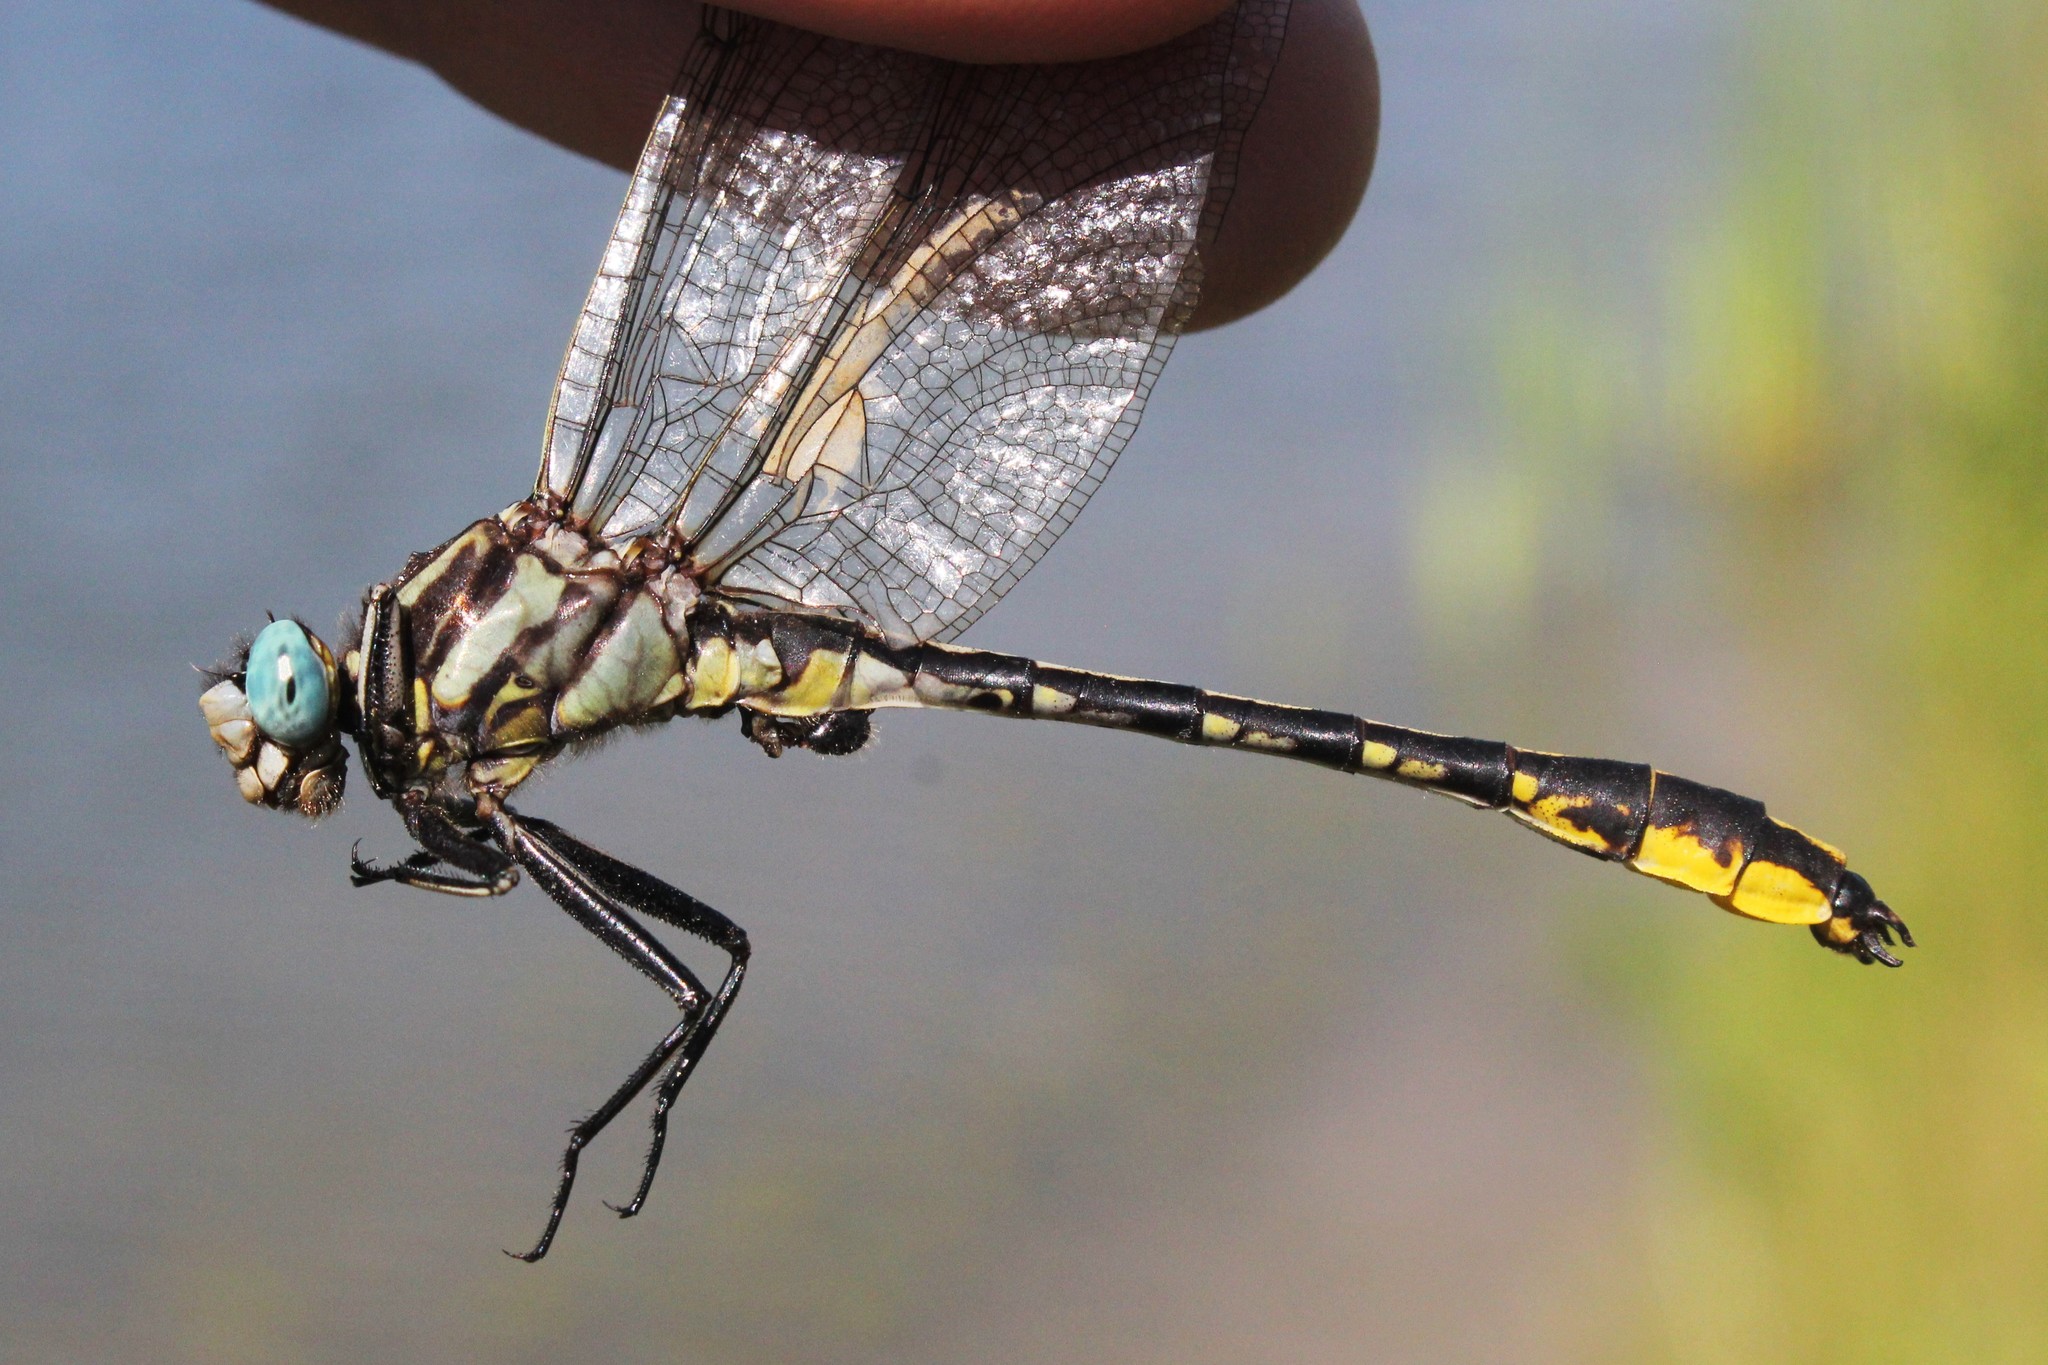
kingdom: Animalia
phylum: Arthropoda
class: Insecta
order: Odonata
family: Gomphidae
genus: Phanogomphus
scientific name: Phanogomphus graslinellus
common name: Pronghorn clubtail
